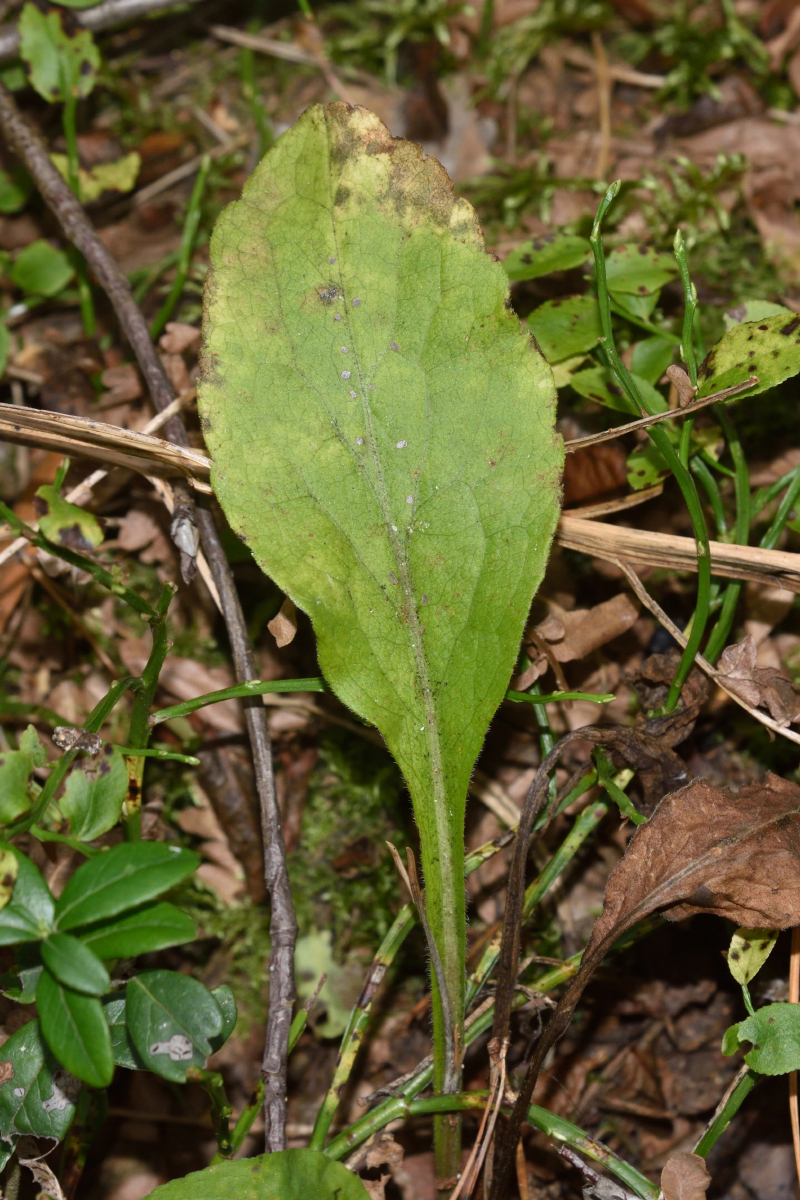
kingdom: Plantae
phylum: Tracheophyta
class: Magnoliopsida
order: Asterales
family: Asteraceae
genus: Solidago
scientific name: Solidago virgaurea
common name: Goldenrod
